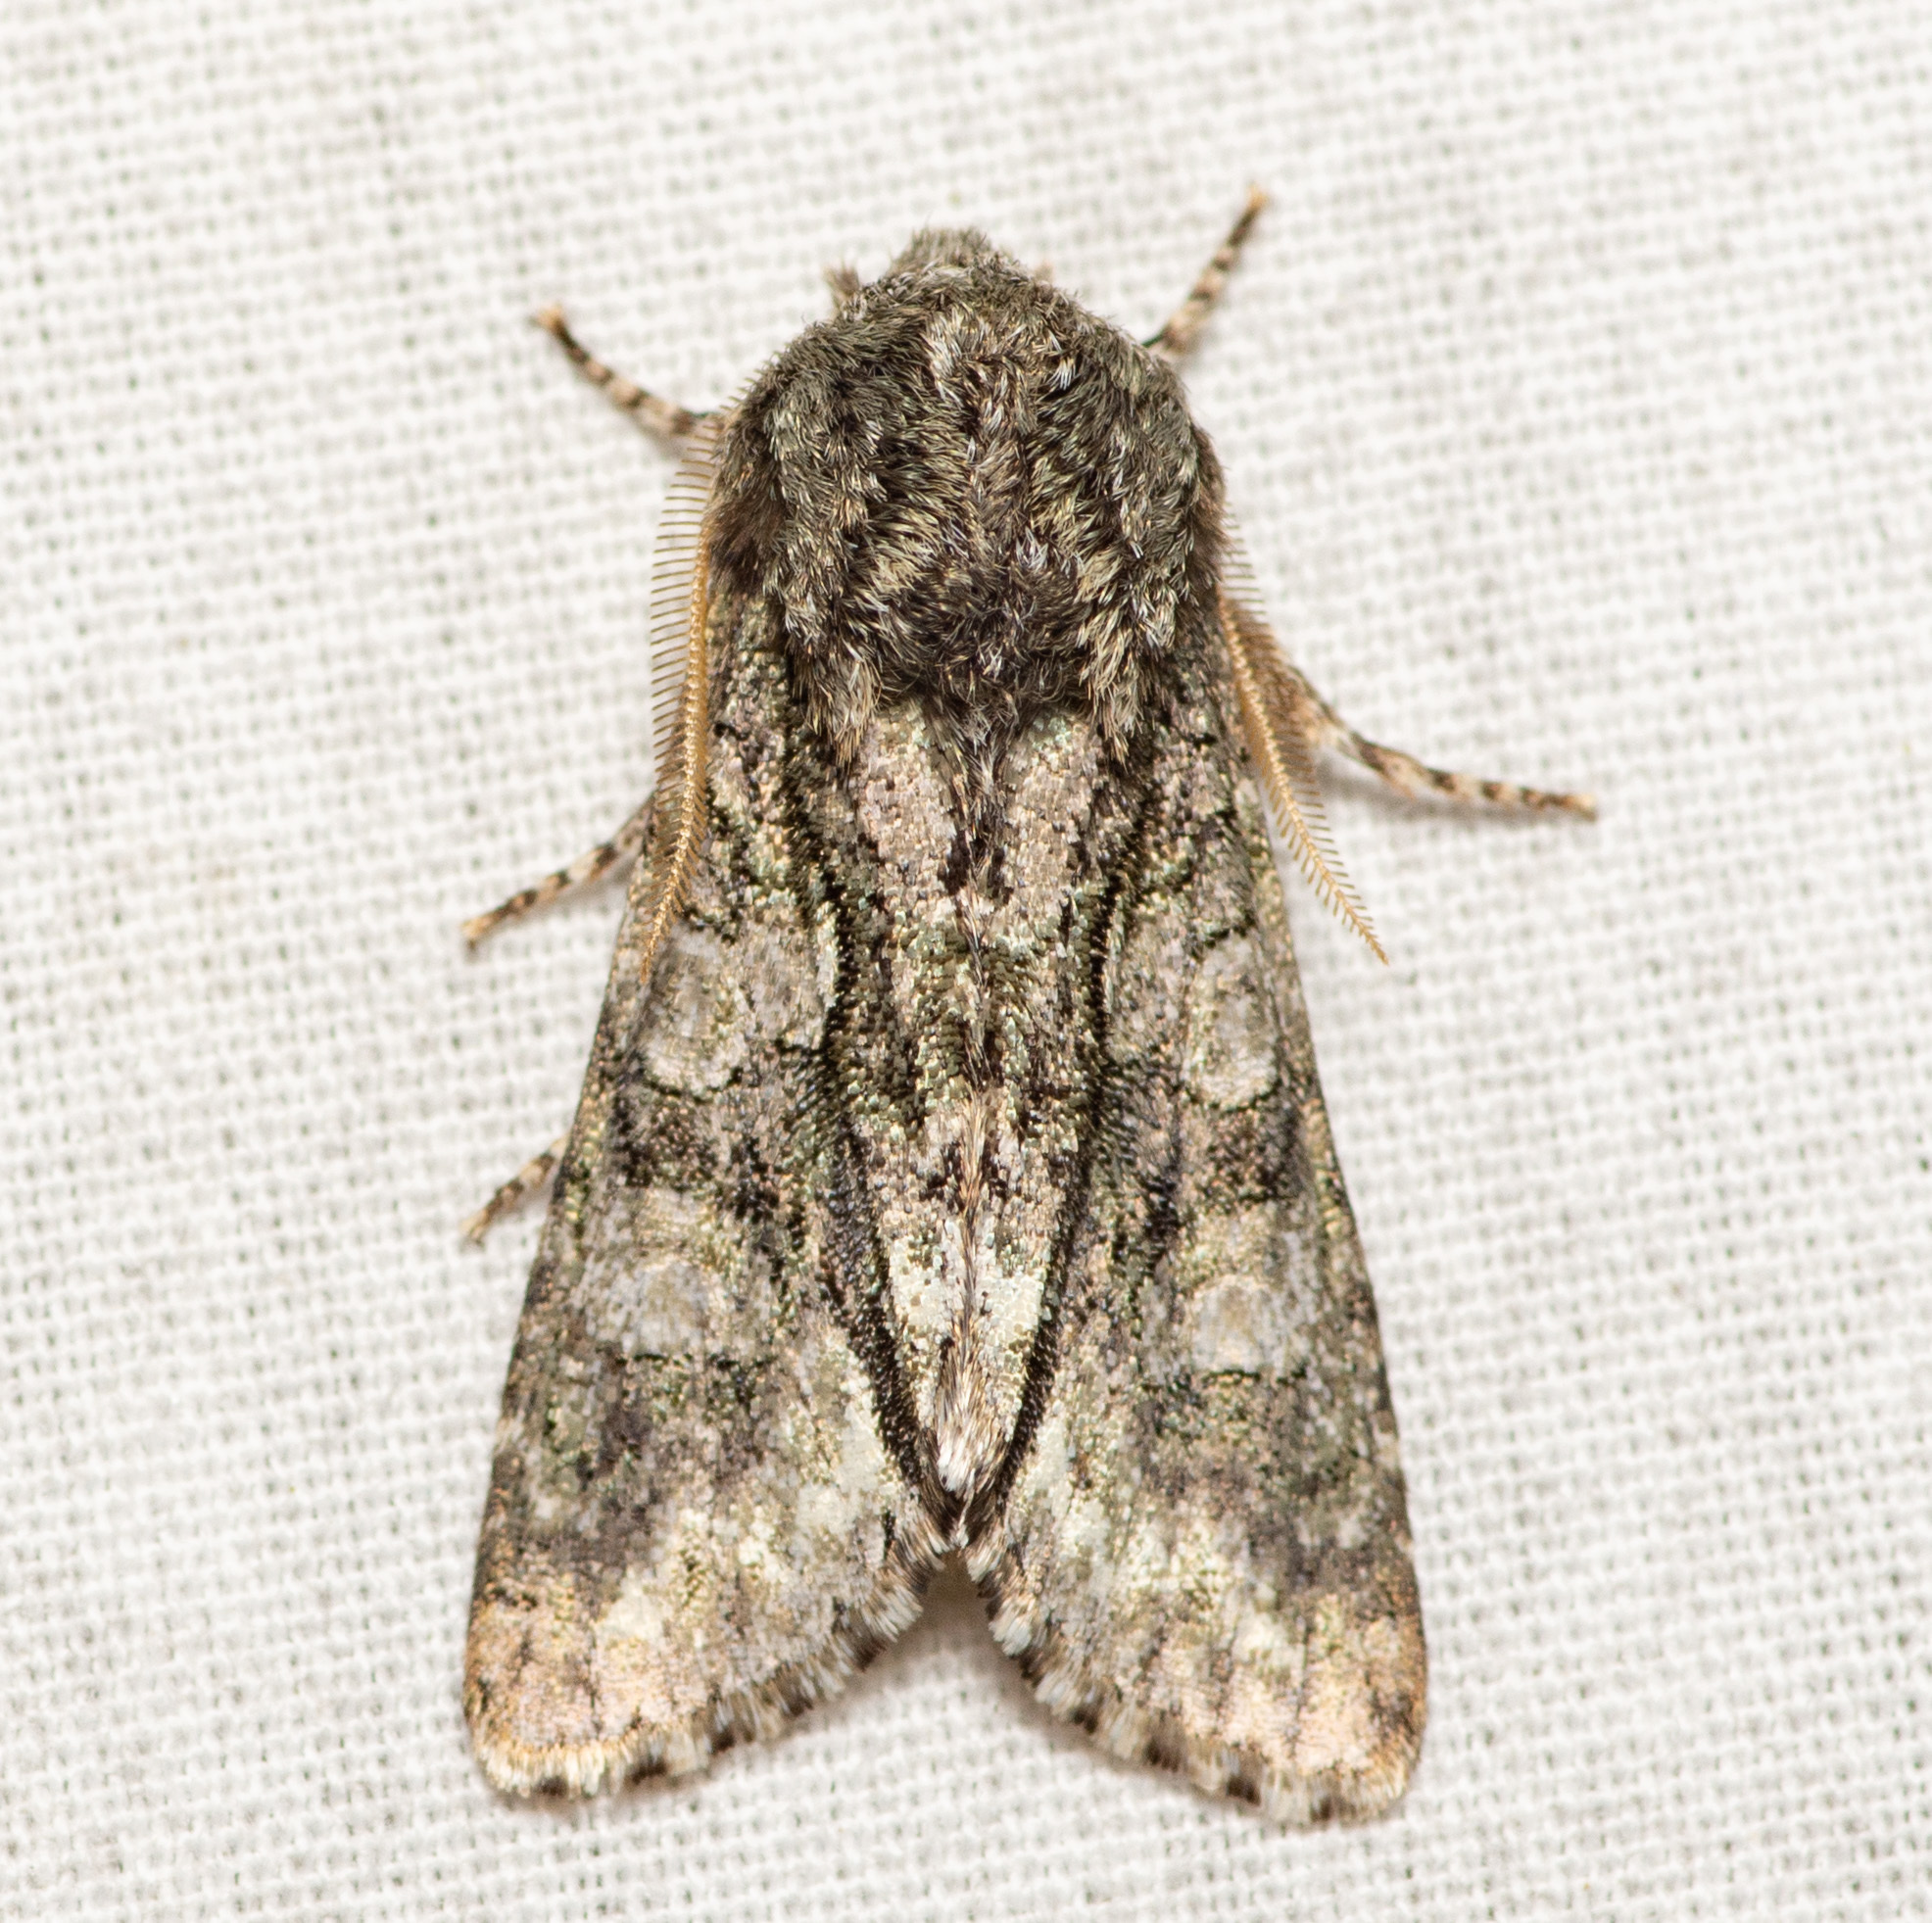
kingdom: Animalia
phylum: Arthropoda
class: Insecta
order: Lepidoptera
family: Noctuidae
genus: Psaphida
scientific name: Psaphida resumens
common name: Figure-eight sallow
